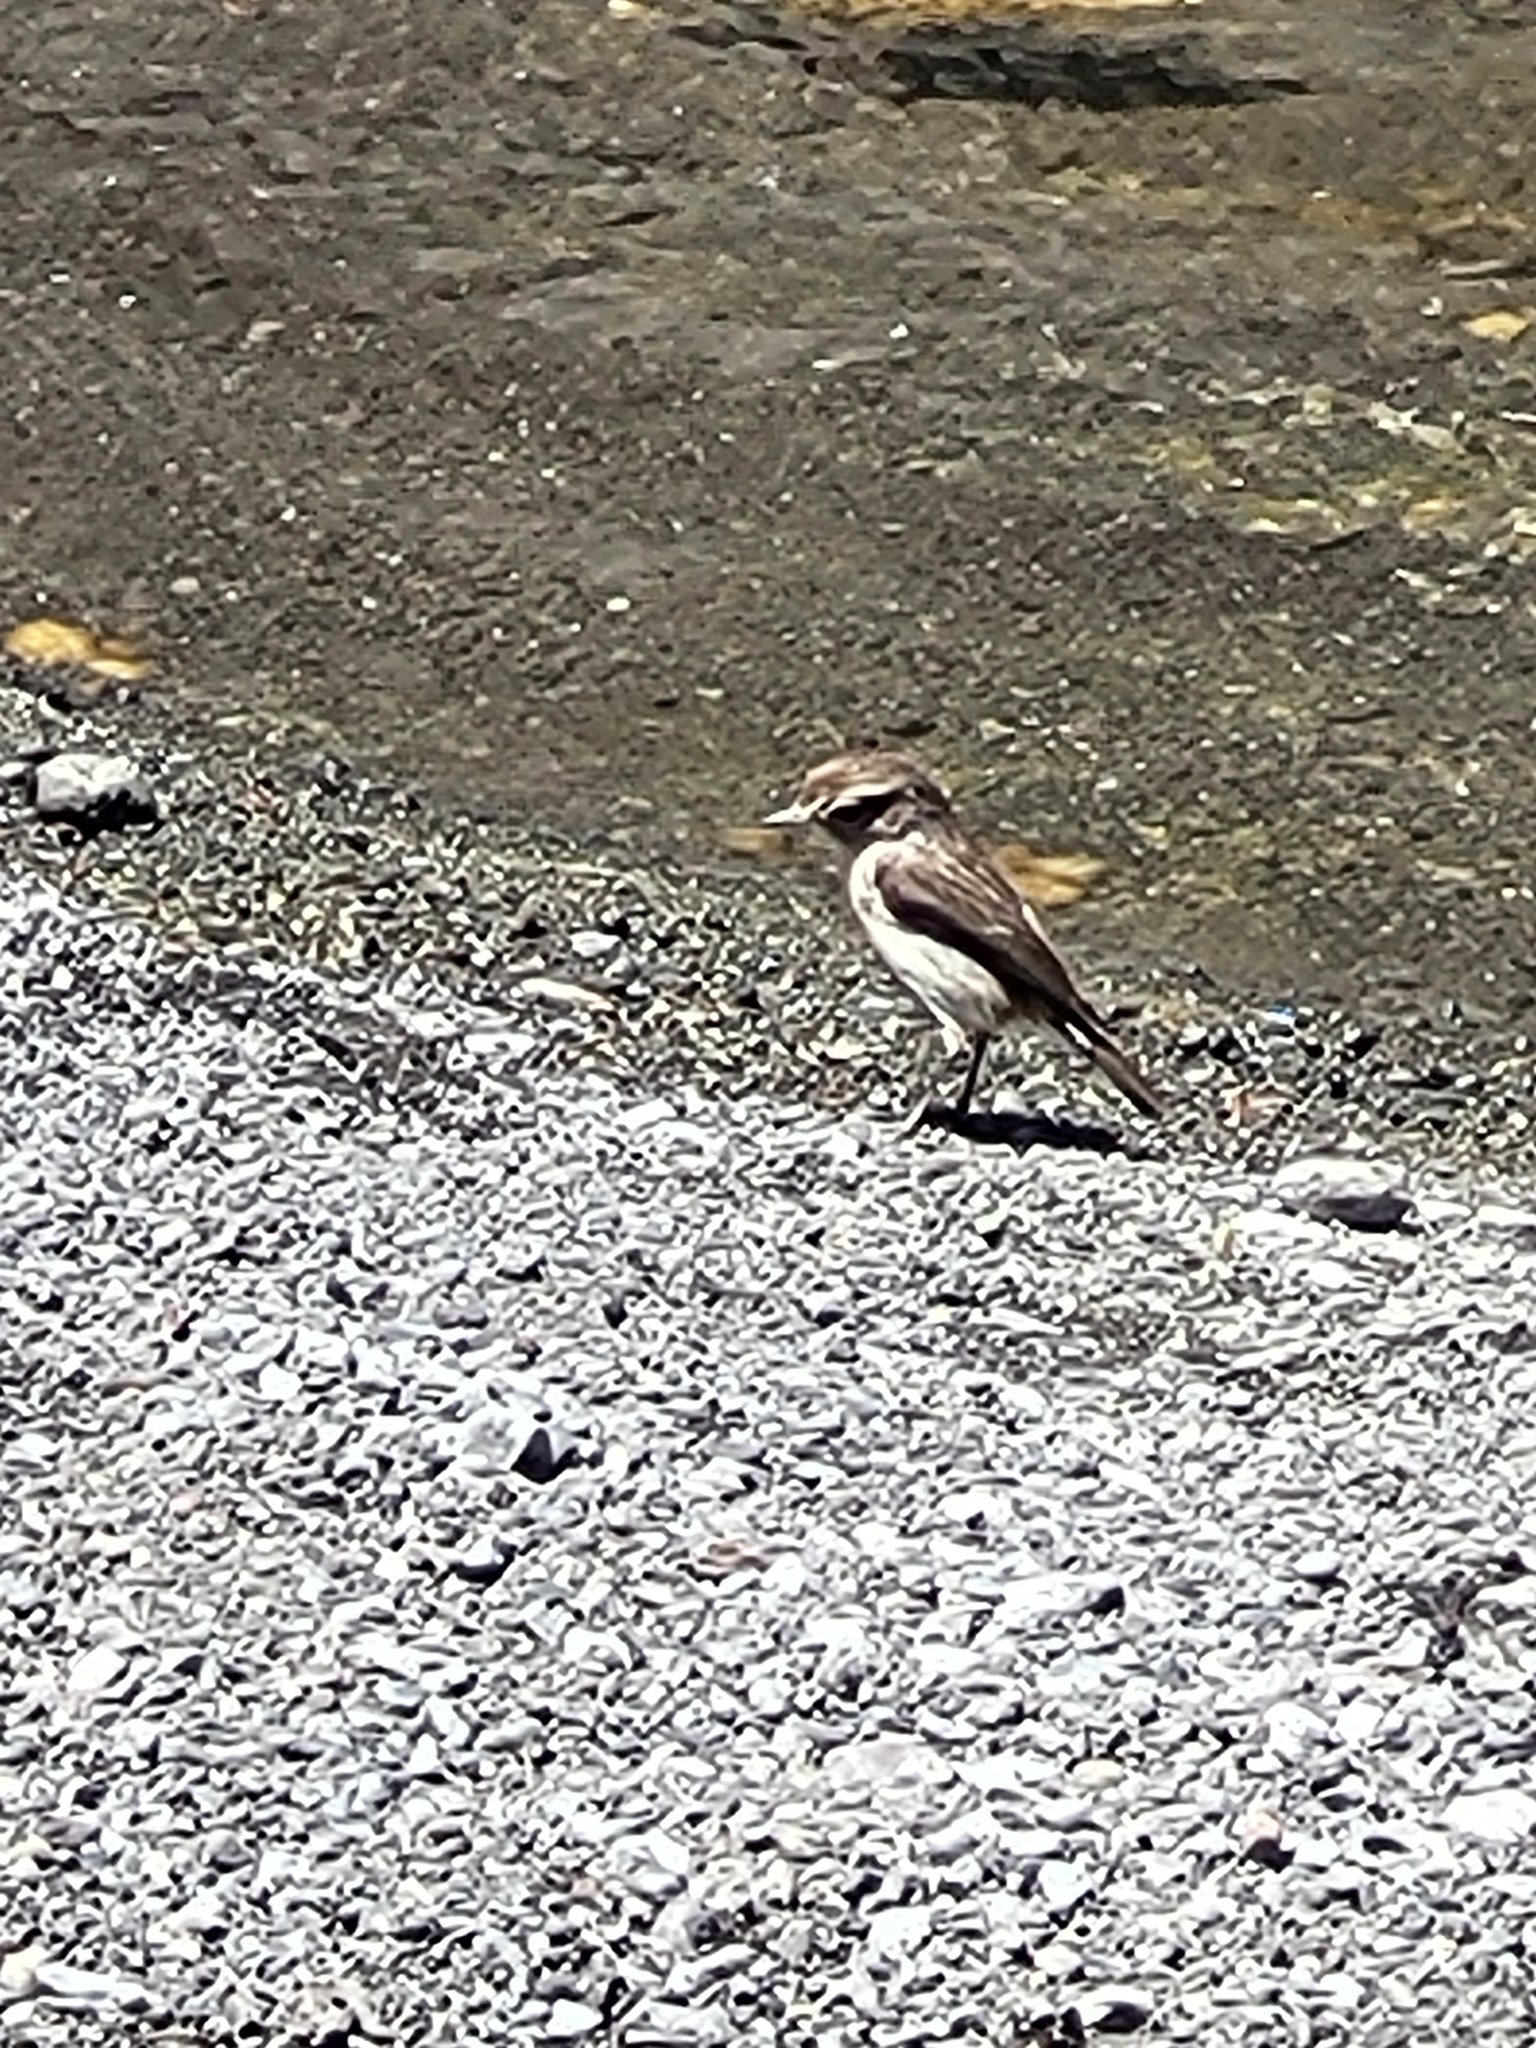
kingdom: Animalia
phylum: Chordata
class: Aves
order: Passeriformes
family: Muscicapidae
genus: Saxicola
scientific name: Saxicola tectes
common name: Reunion stonechat
